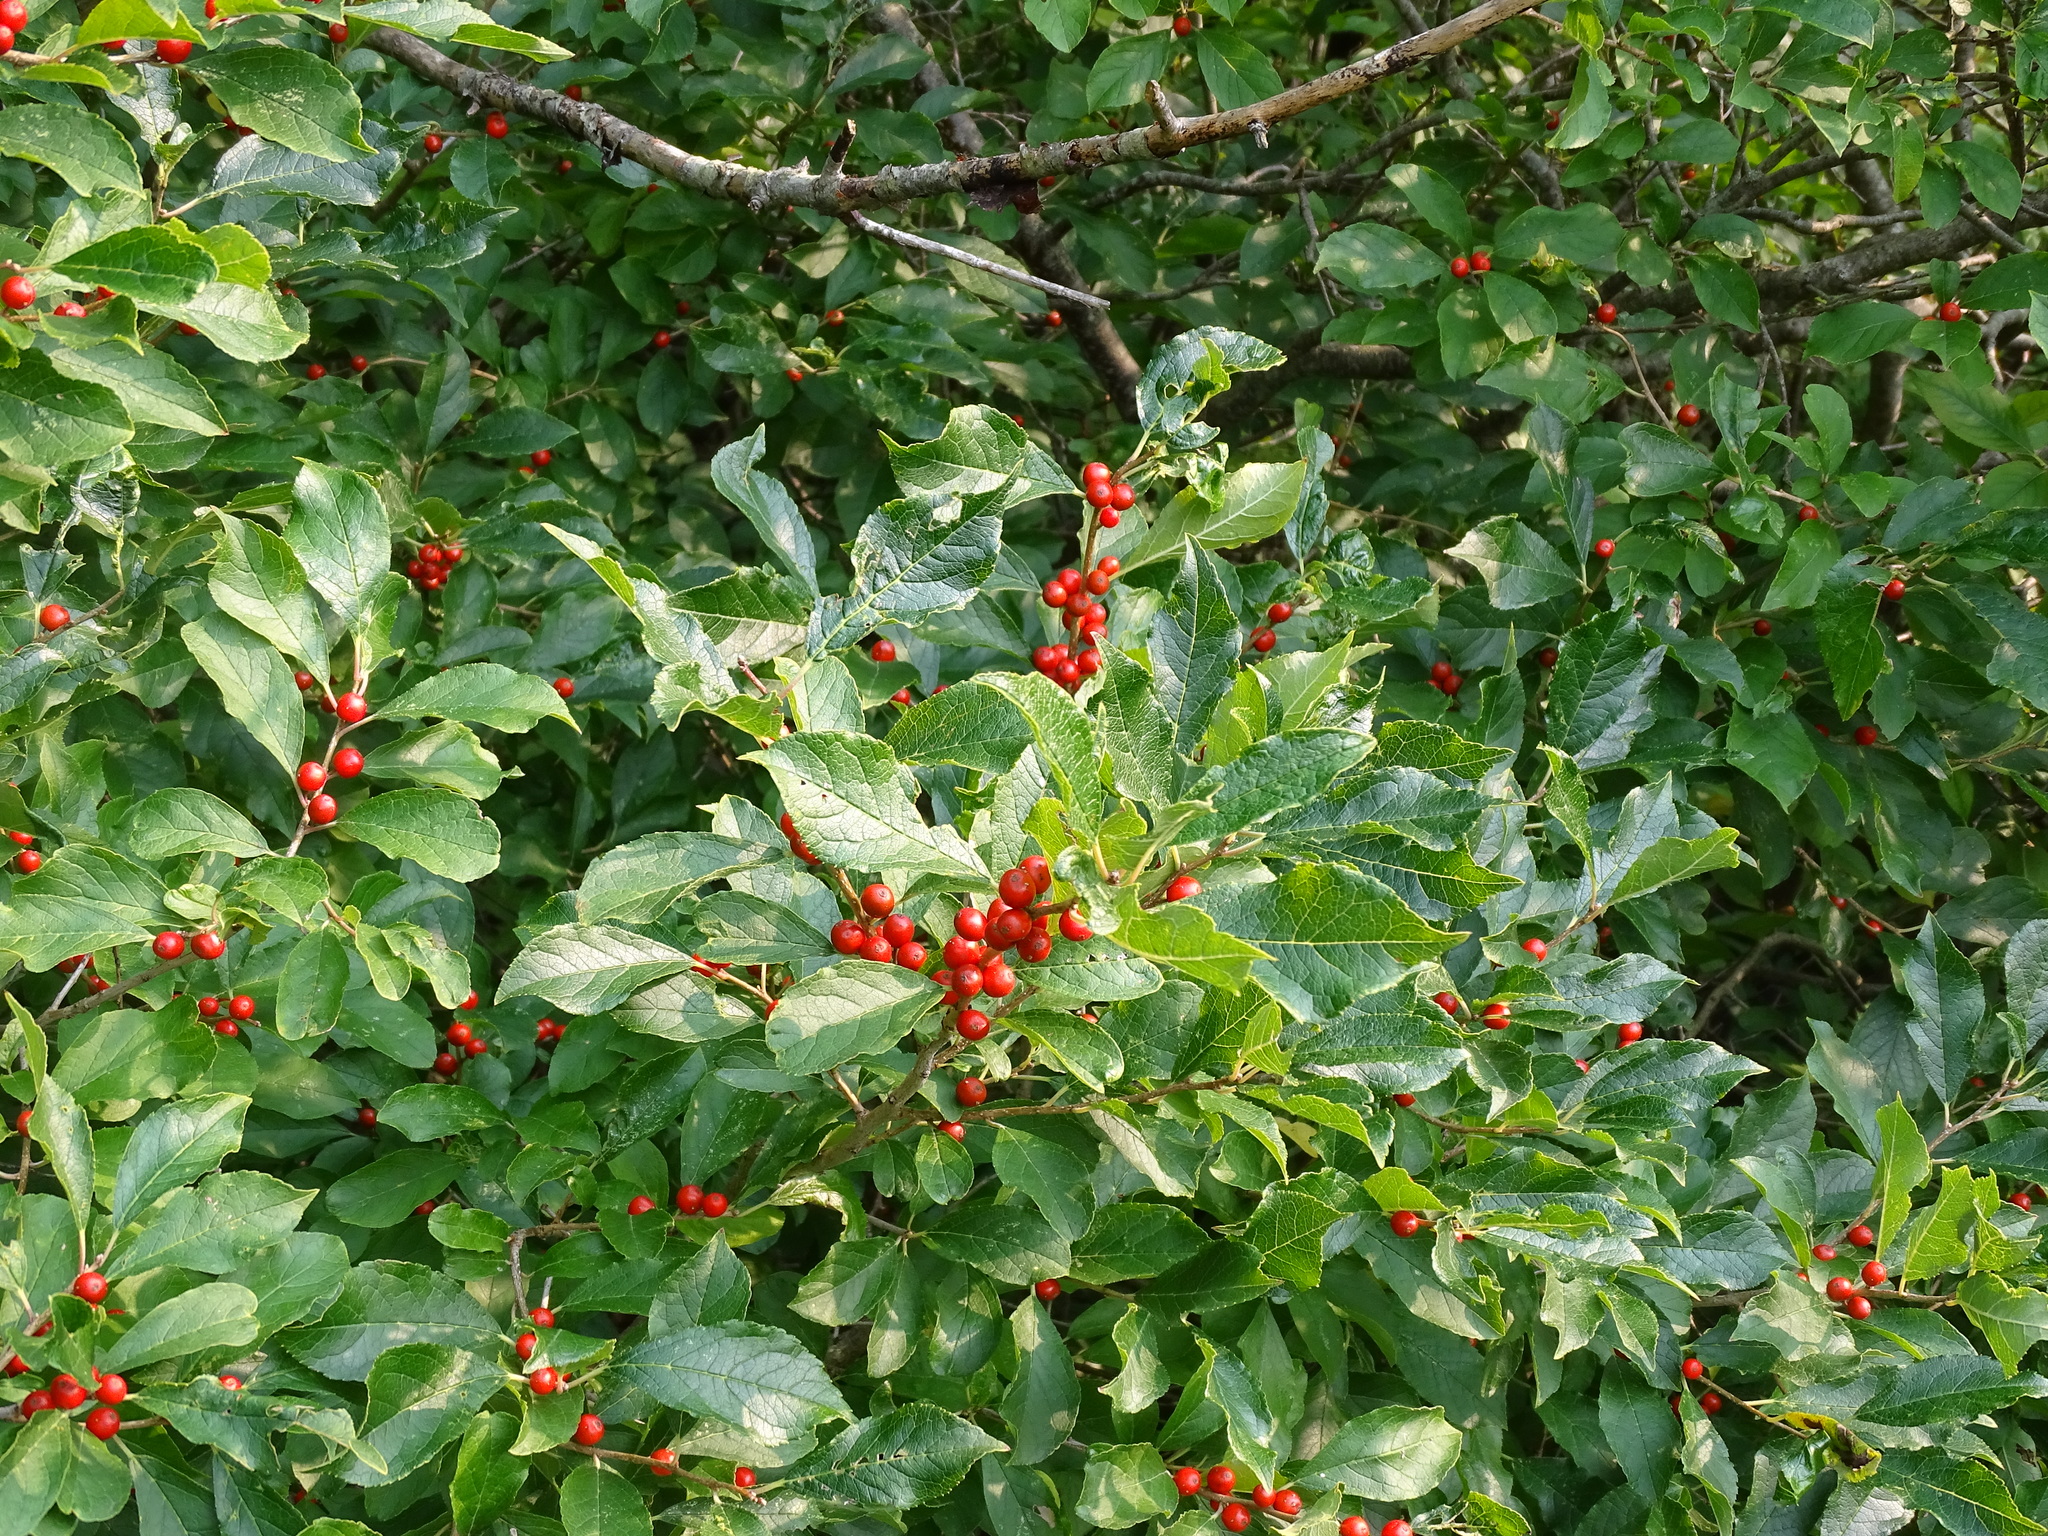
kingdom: Plantae
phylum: Tracheophyta
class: Magnoliopsida
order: Aquifoliales
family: Aquifoliaceae
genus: Ilex
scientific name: Ilex verticillata
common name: Virginia winterberry
